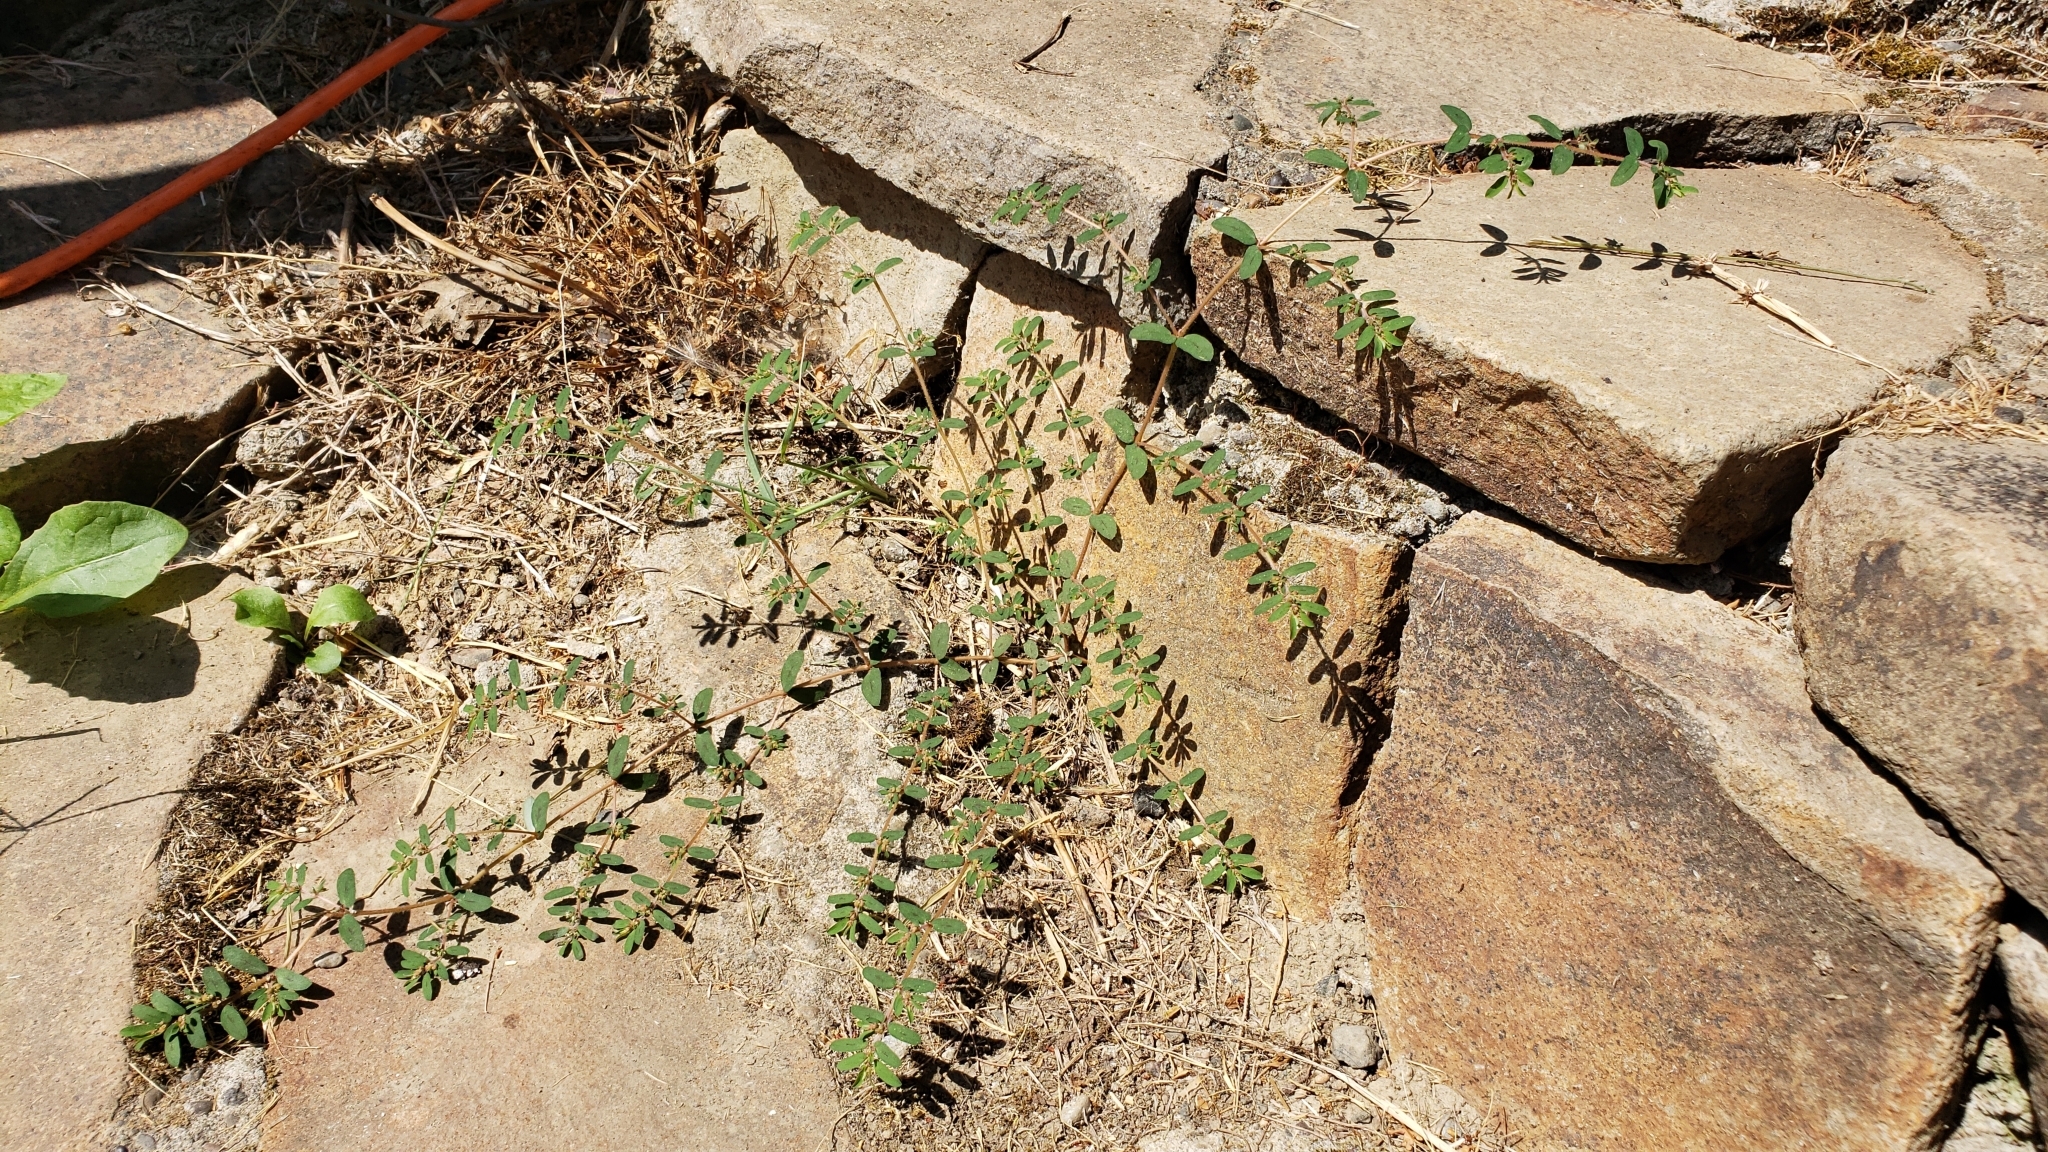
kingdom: Plantae
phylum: Tracheophyta
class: Magnoliopsida
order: Malpighiales
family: Euphorbiaceae
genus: Euphorbia
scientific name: Euphorbia maculata
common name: Spotted spurge
